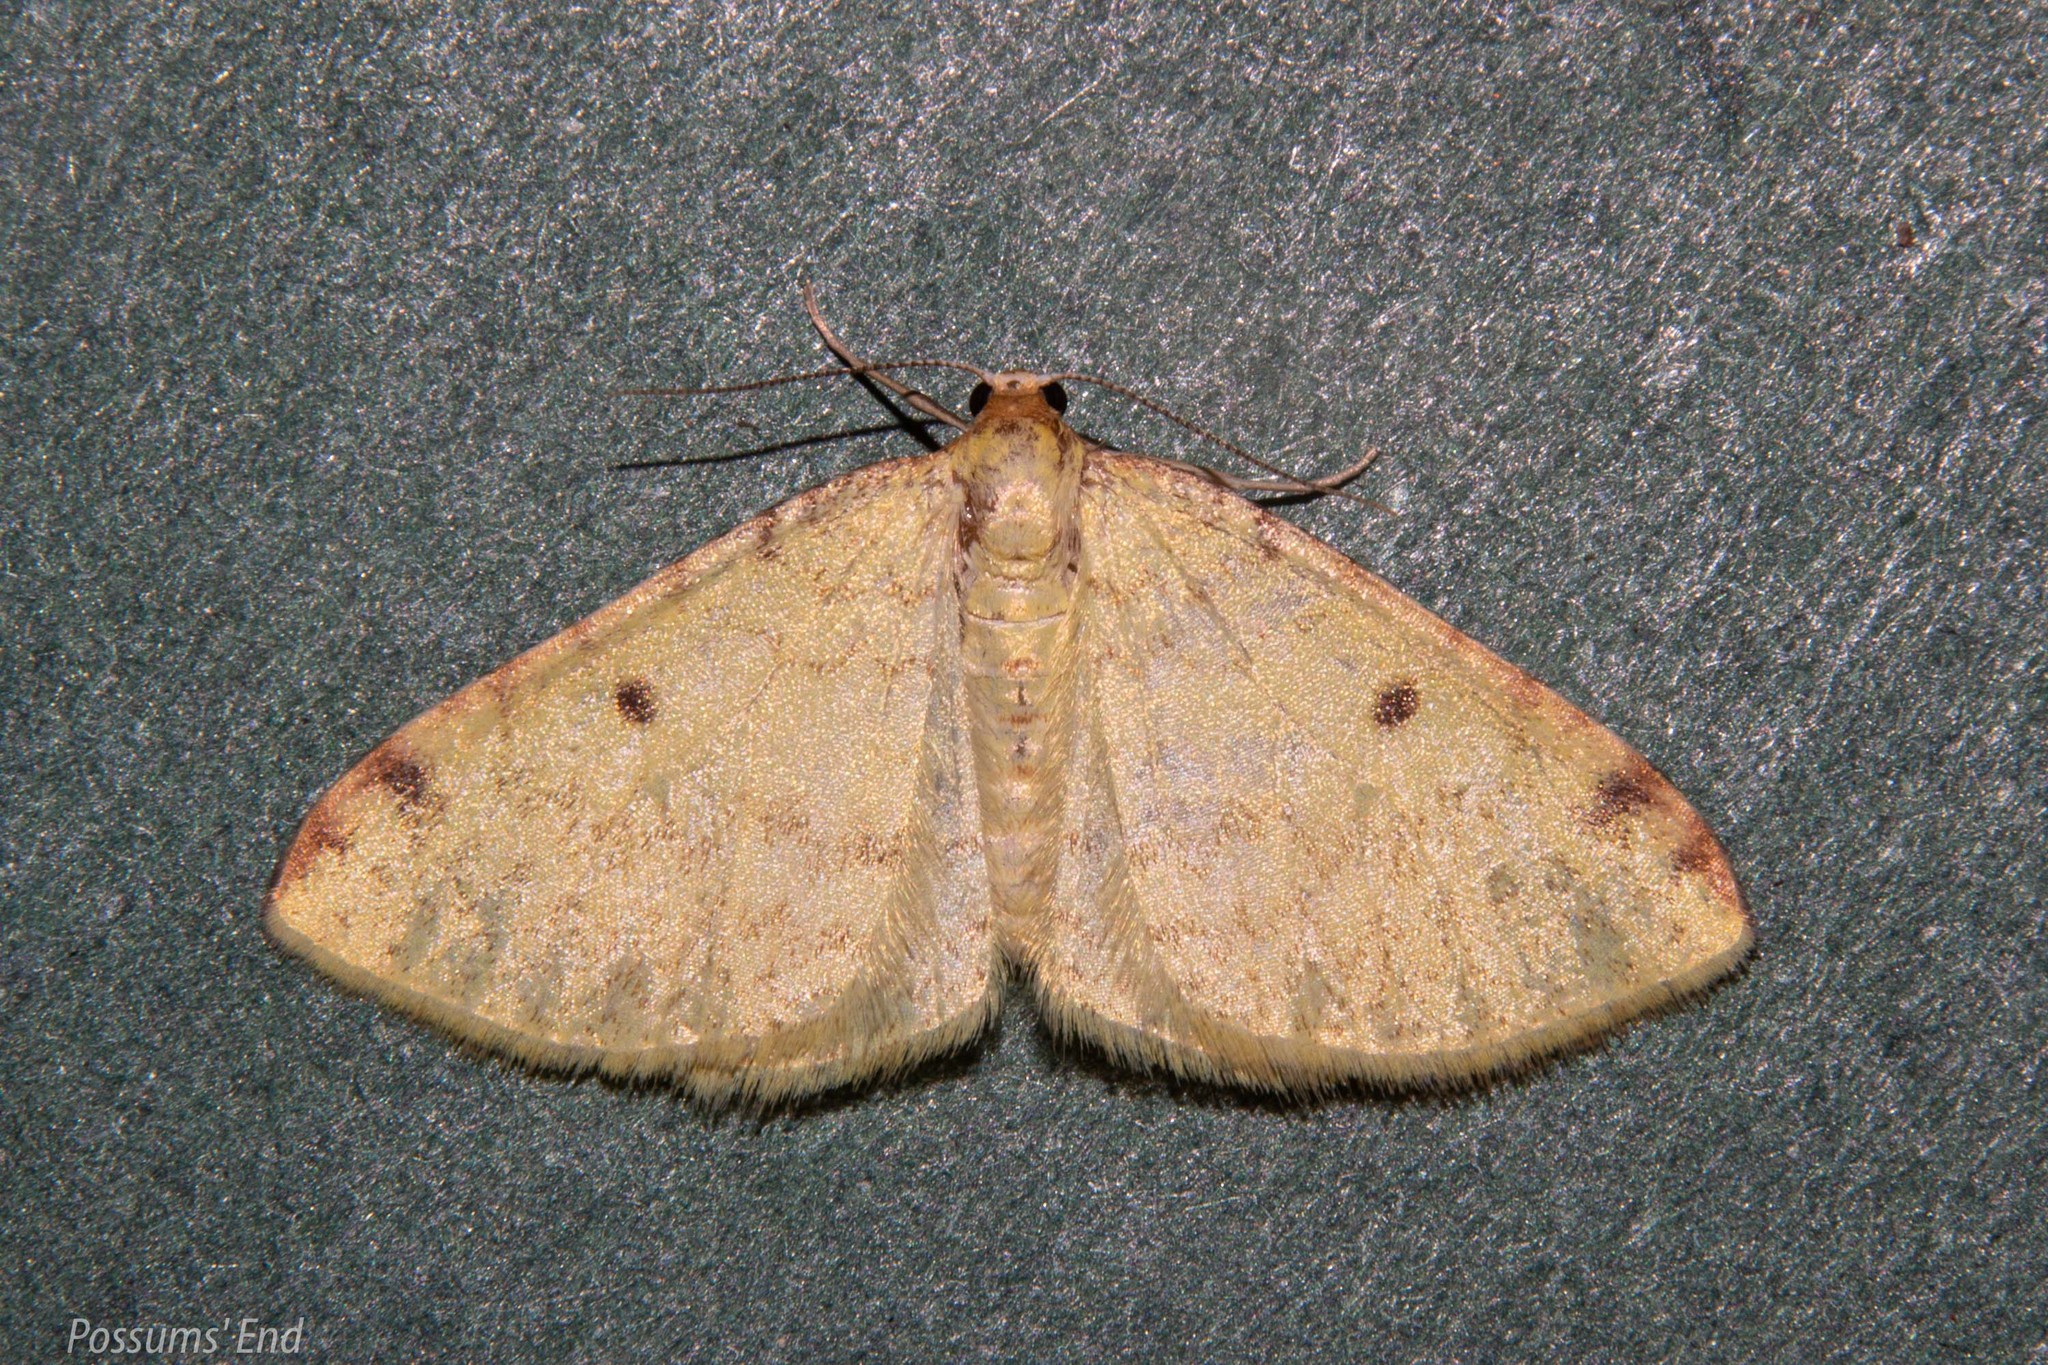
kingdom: Animalia
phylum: Arthropoda
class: Insecta
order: Lepidoptera
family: Geometridae
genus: Epiphryne
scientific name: Epiphryne undosata
